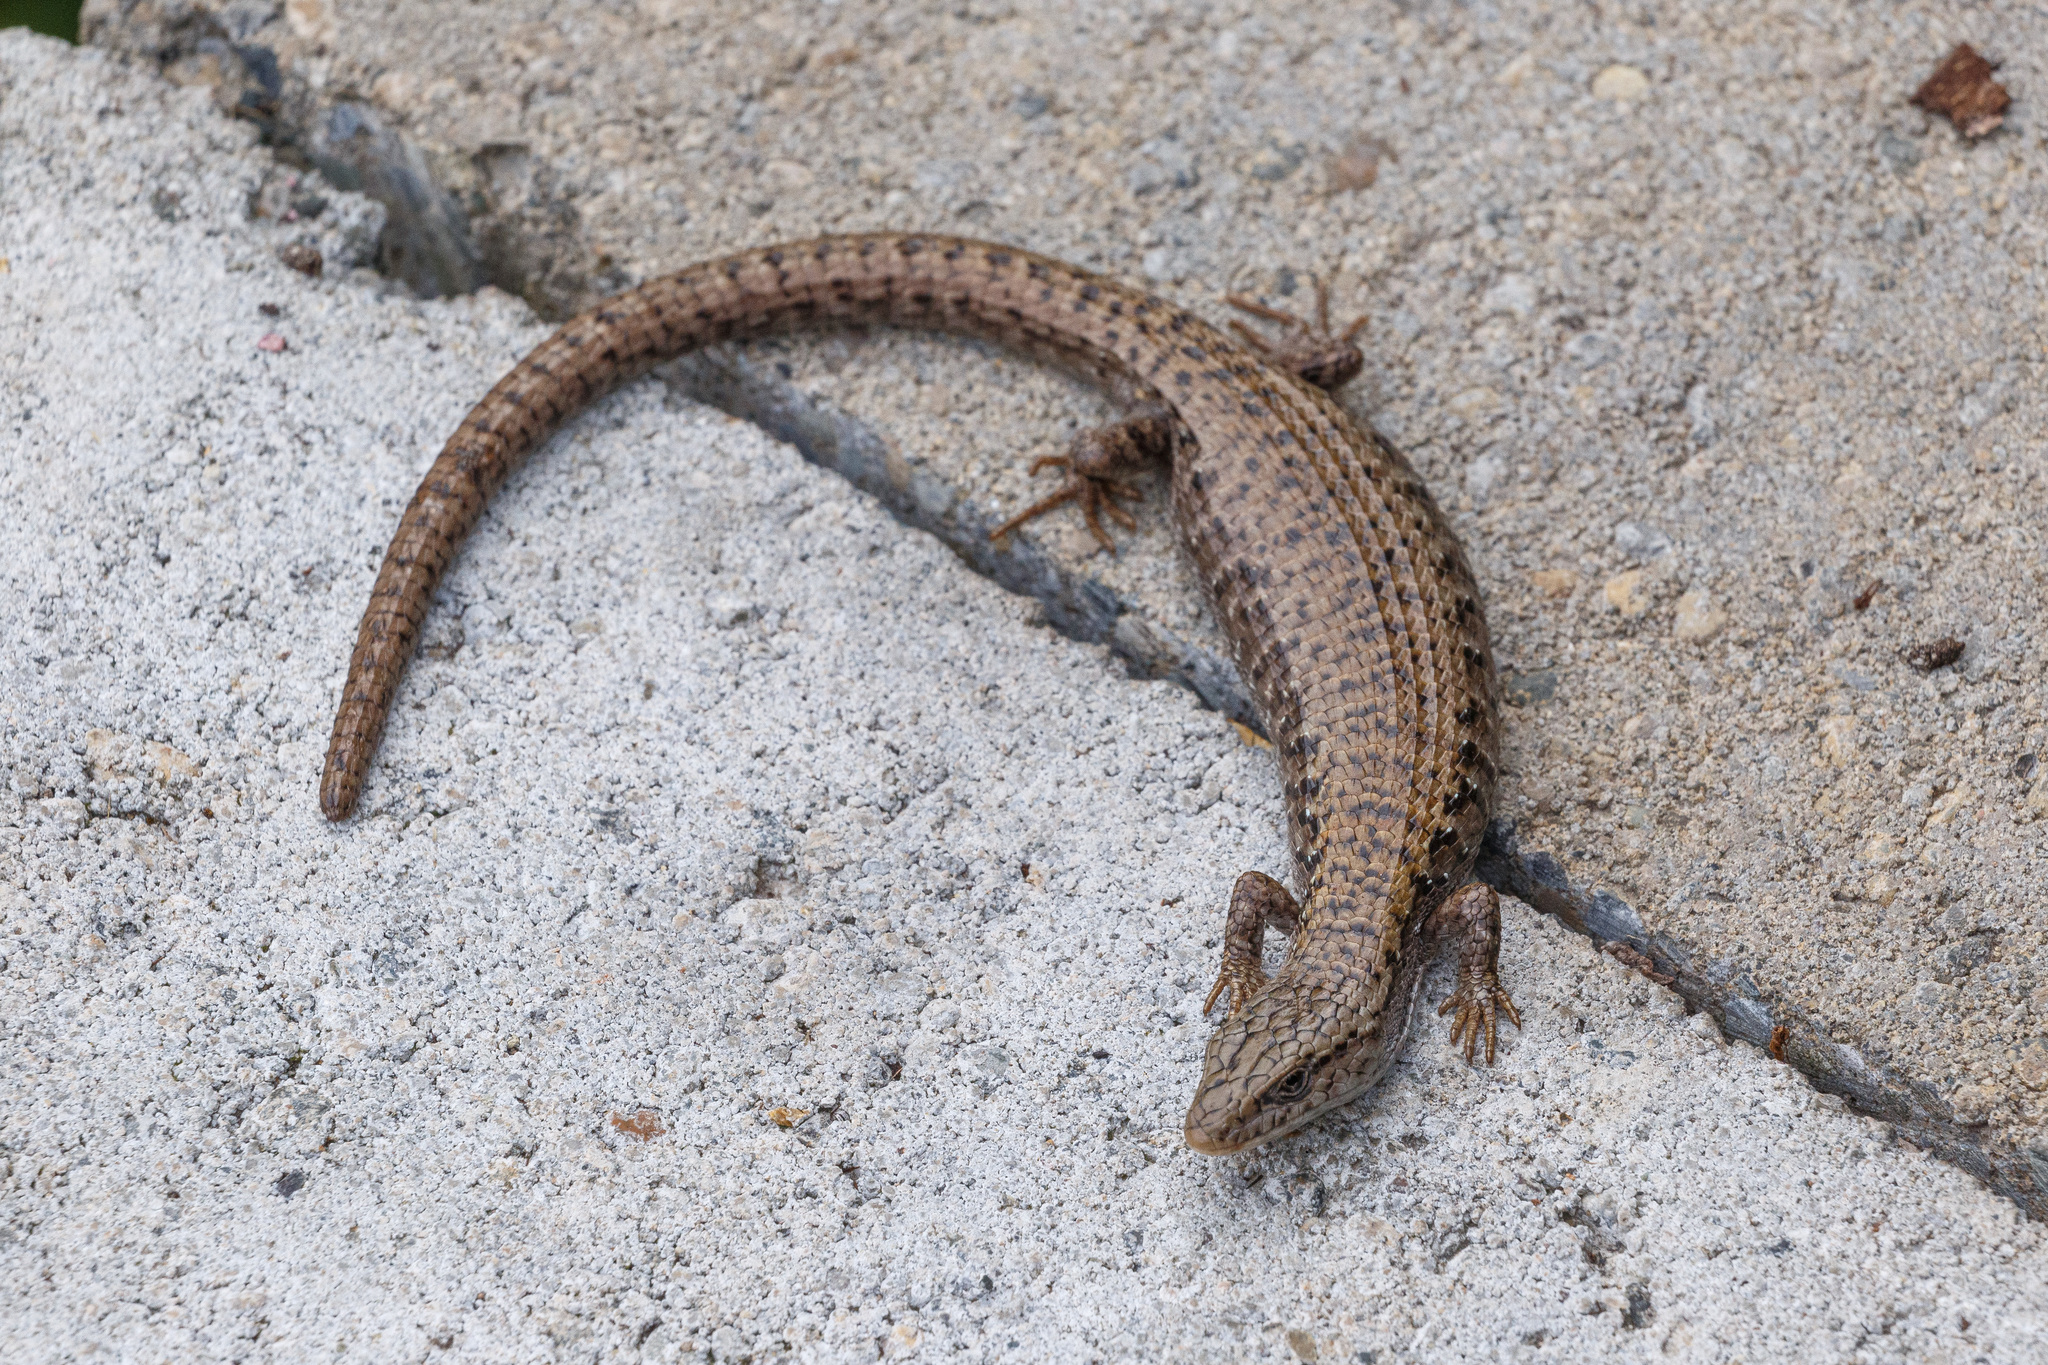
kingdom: Animalia
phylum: Chordata
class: Squamata
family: Anguidae
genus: Elgaria
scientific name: Elgaria coerulea
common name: Northern alligator lizard
